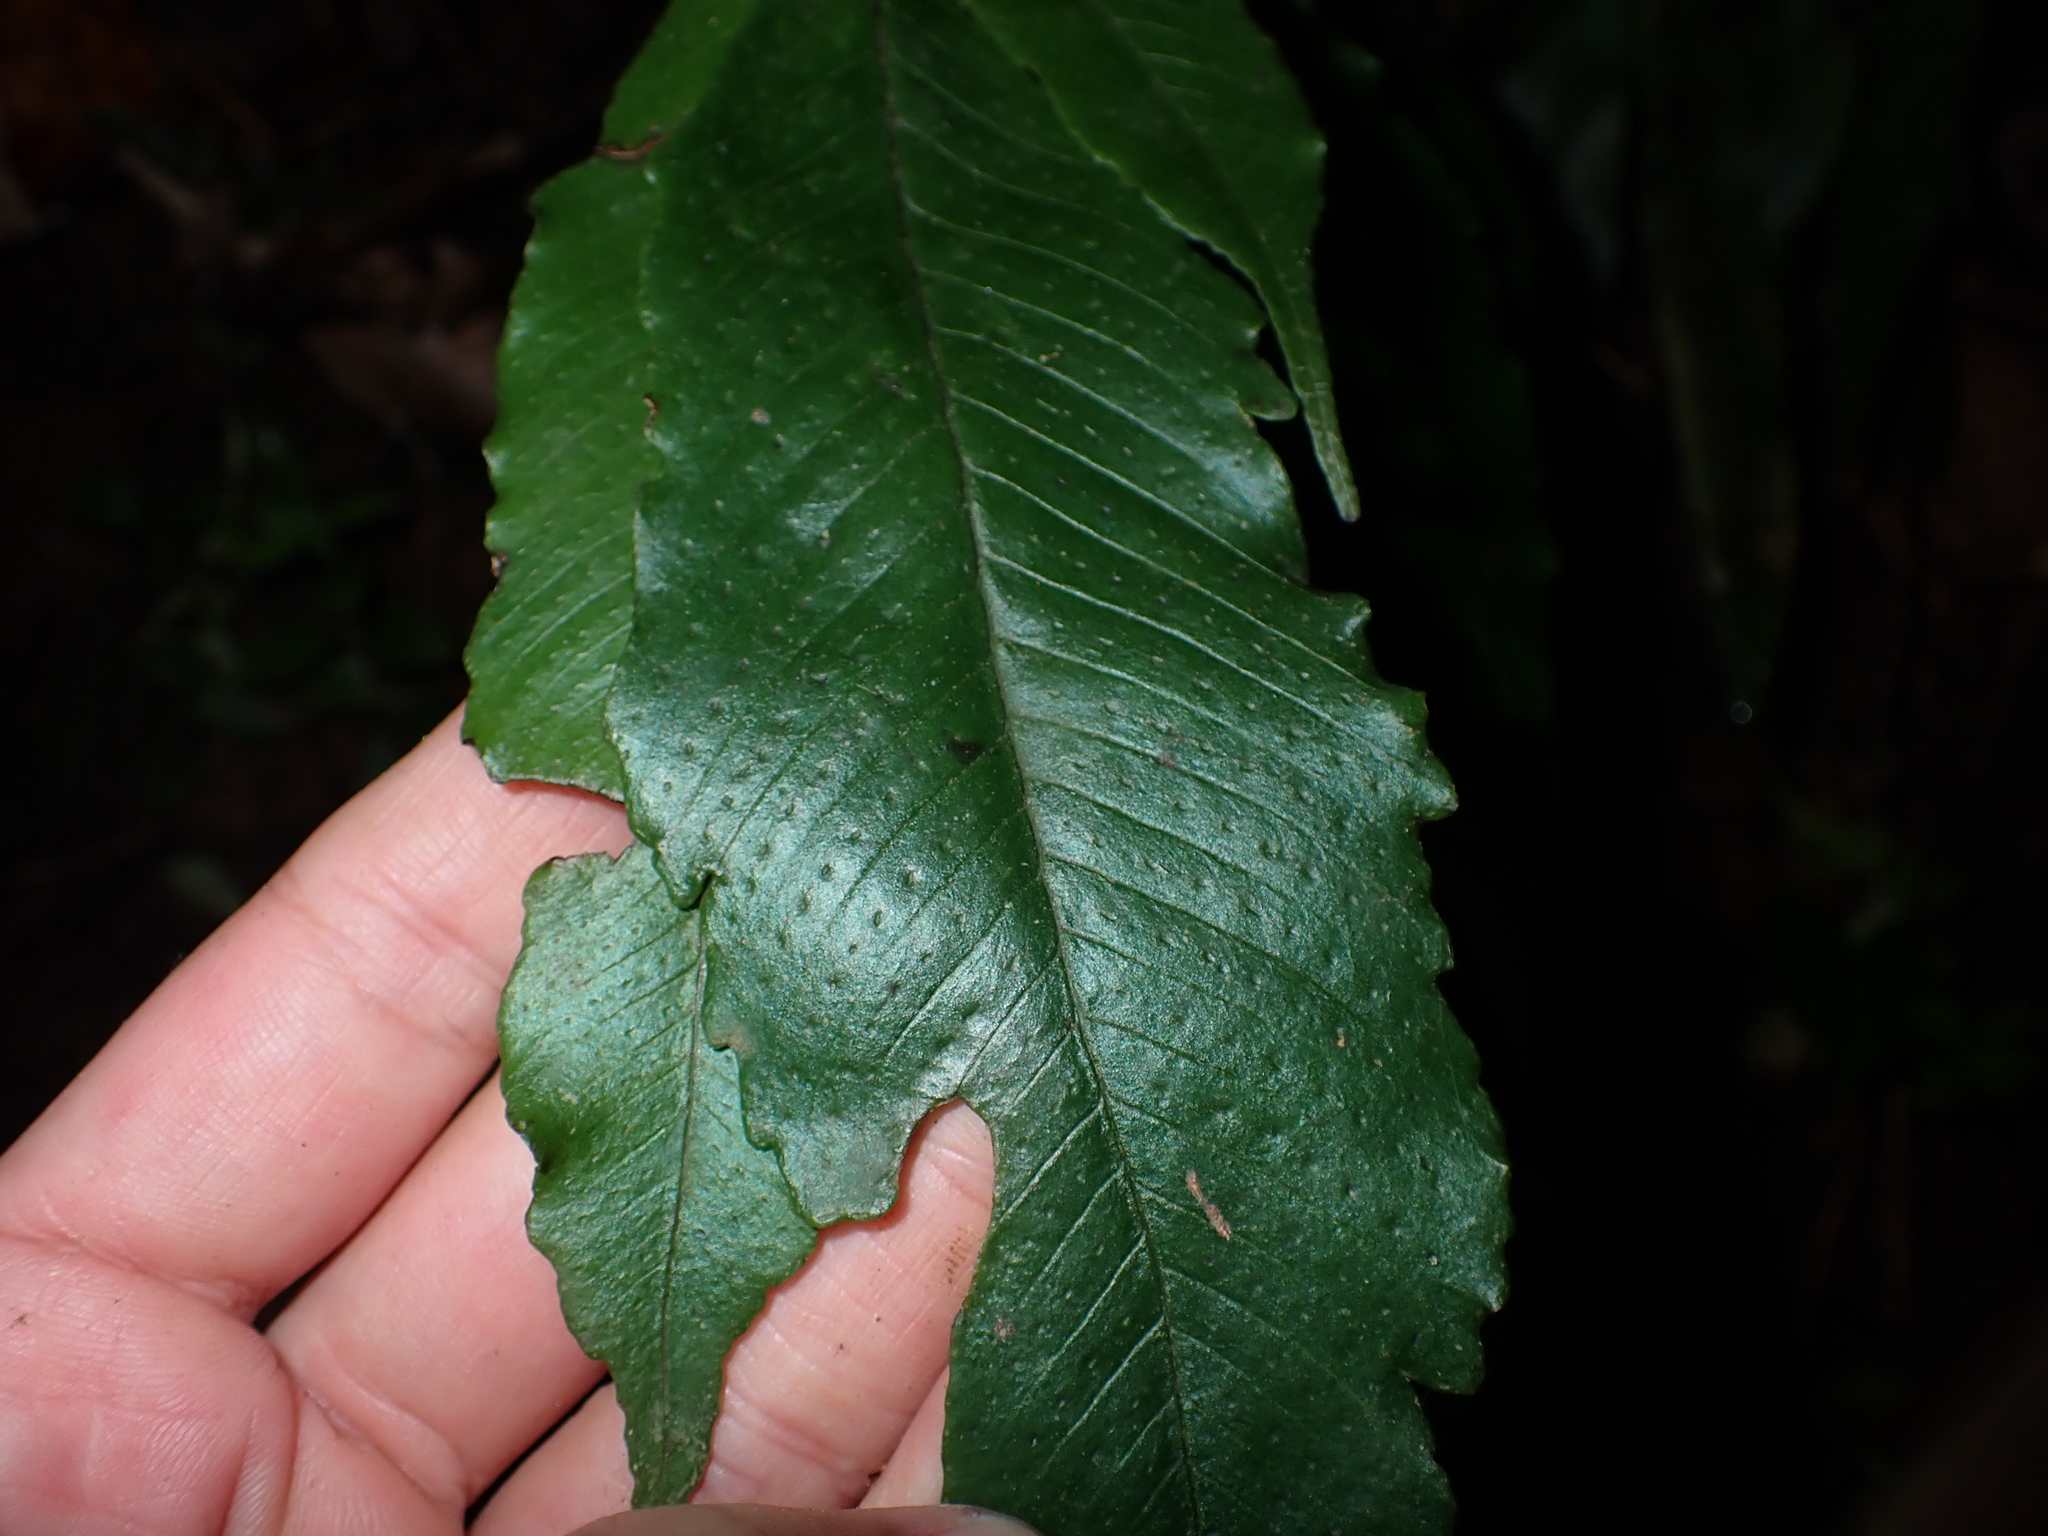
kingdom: Plantae
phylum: Tracheophyta
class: Polypodiopsida
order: Polypodiales
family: Thelypteridaceae
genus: Grypothrix
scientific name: Grypothrix ramosii
